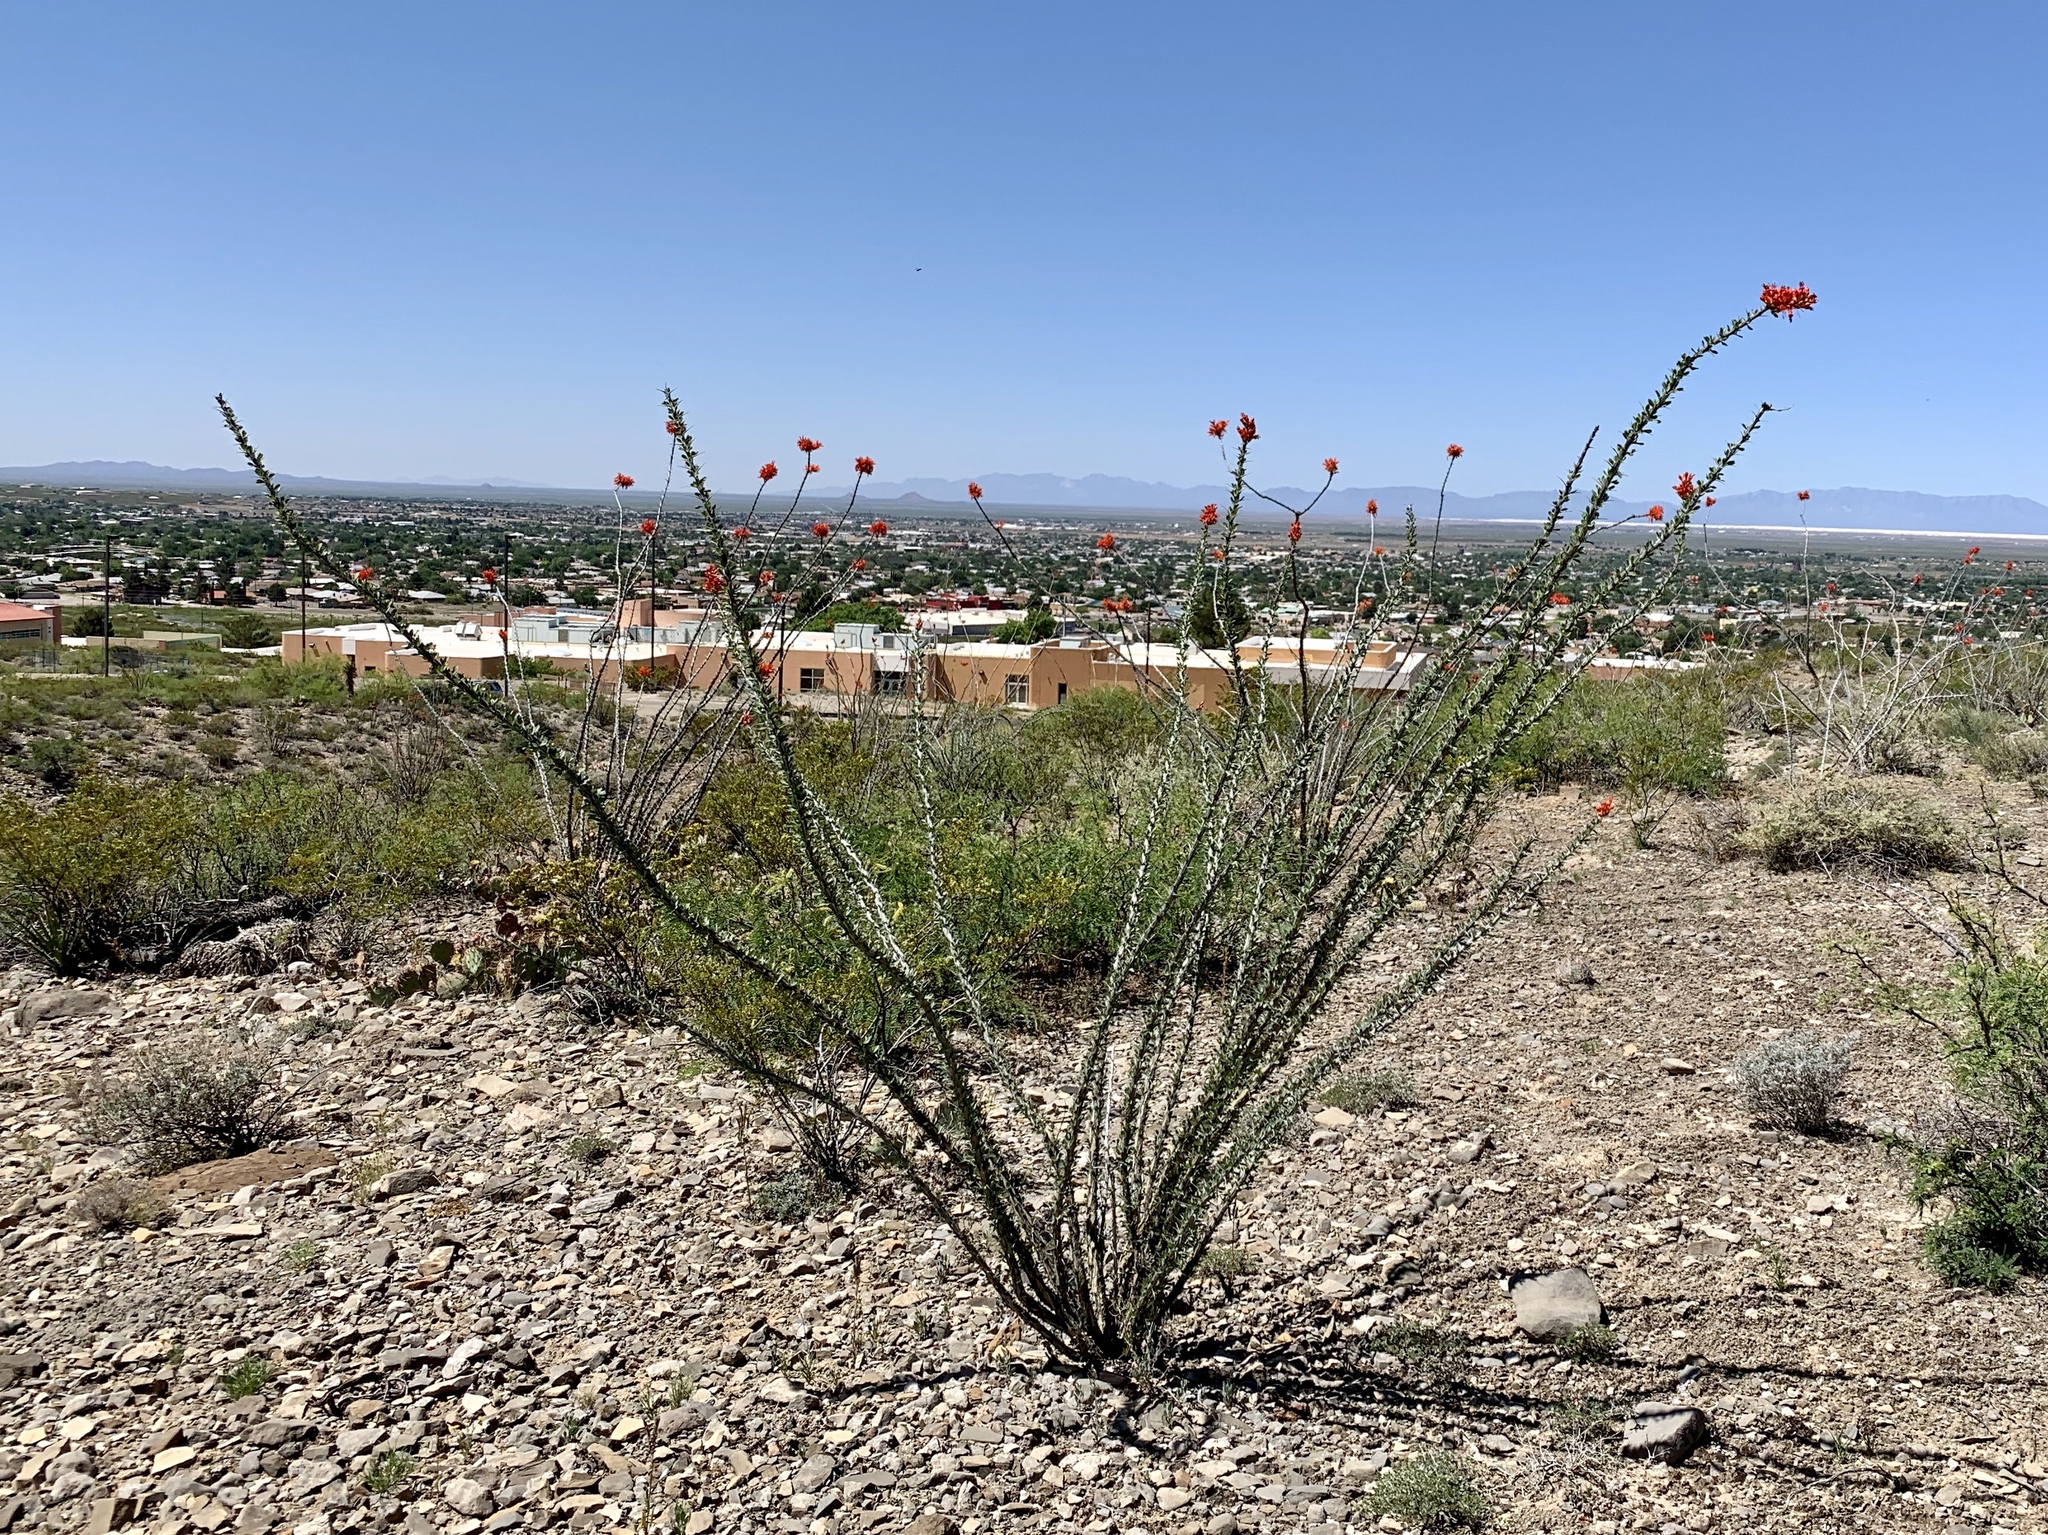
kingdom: Plantae
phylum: Tracheophyta
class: Magnoliopsida
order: Ericales
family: Fouquieriaceae
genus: Fouquieria
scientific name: Fouquieria splendens
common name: Vine-cactus
